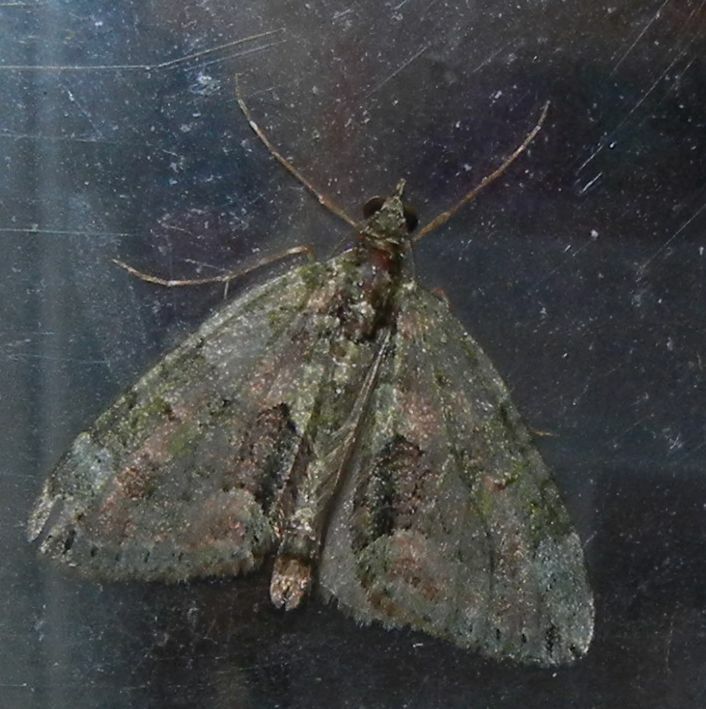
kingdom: Animalia
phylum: Arthropoda
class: Insecta
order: Lepidoptera
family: Geometridae
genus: Chloroclysta
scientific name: Chloroclysta siterata
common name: Red-green carpet
